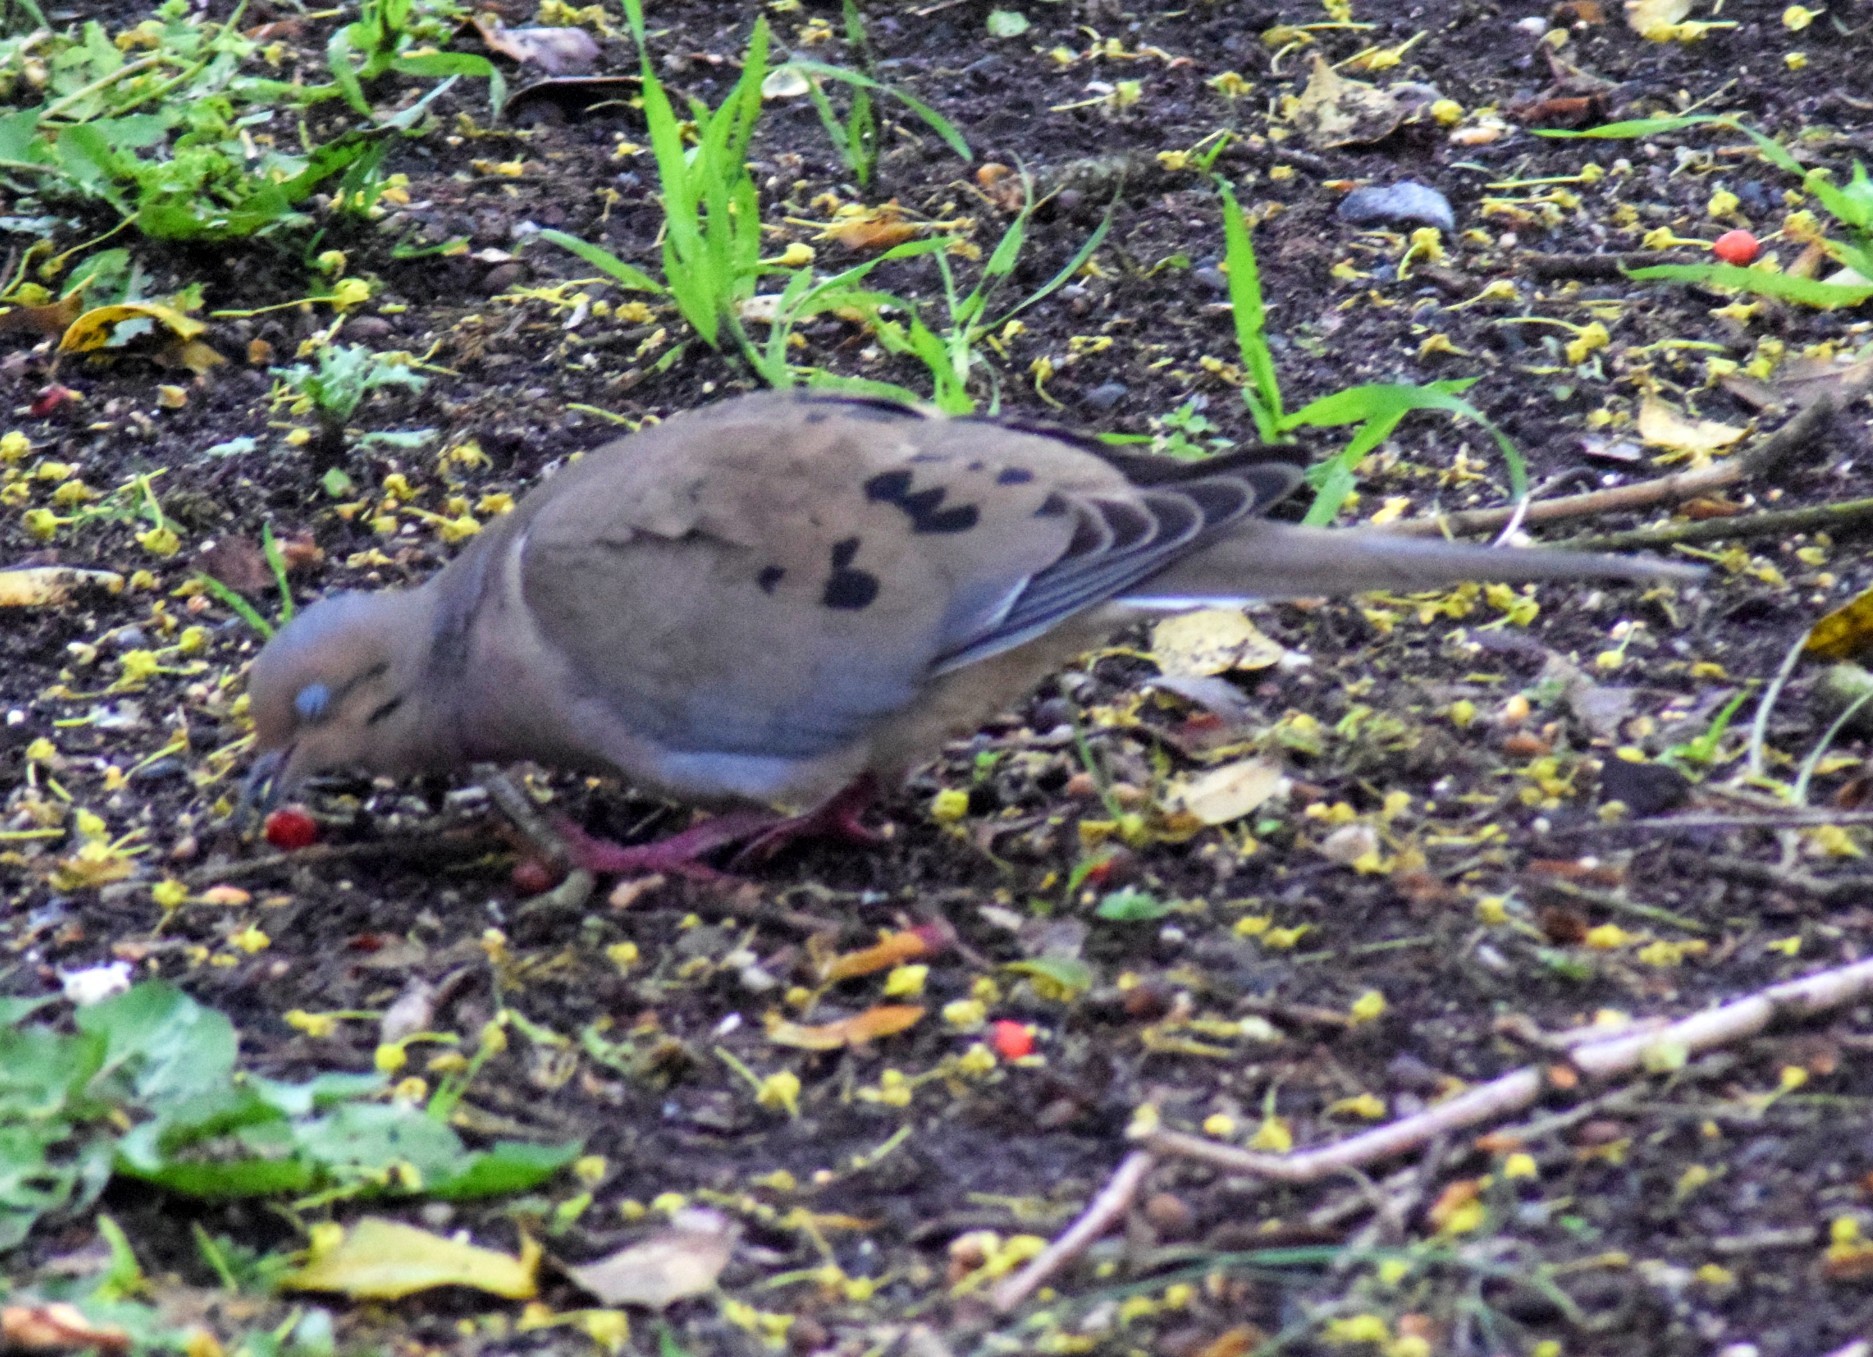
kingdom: Animalia
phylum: Chordata
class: Aves
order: Columbiformes
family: Columbidae
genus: Zenaida
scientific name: Zenaida macroura
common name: Mourning dove
